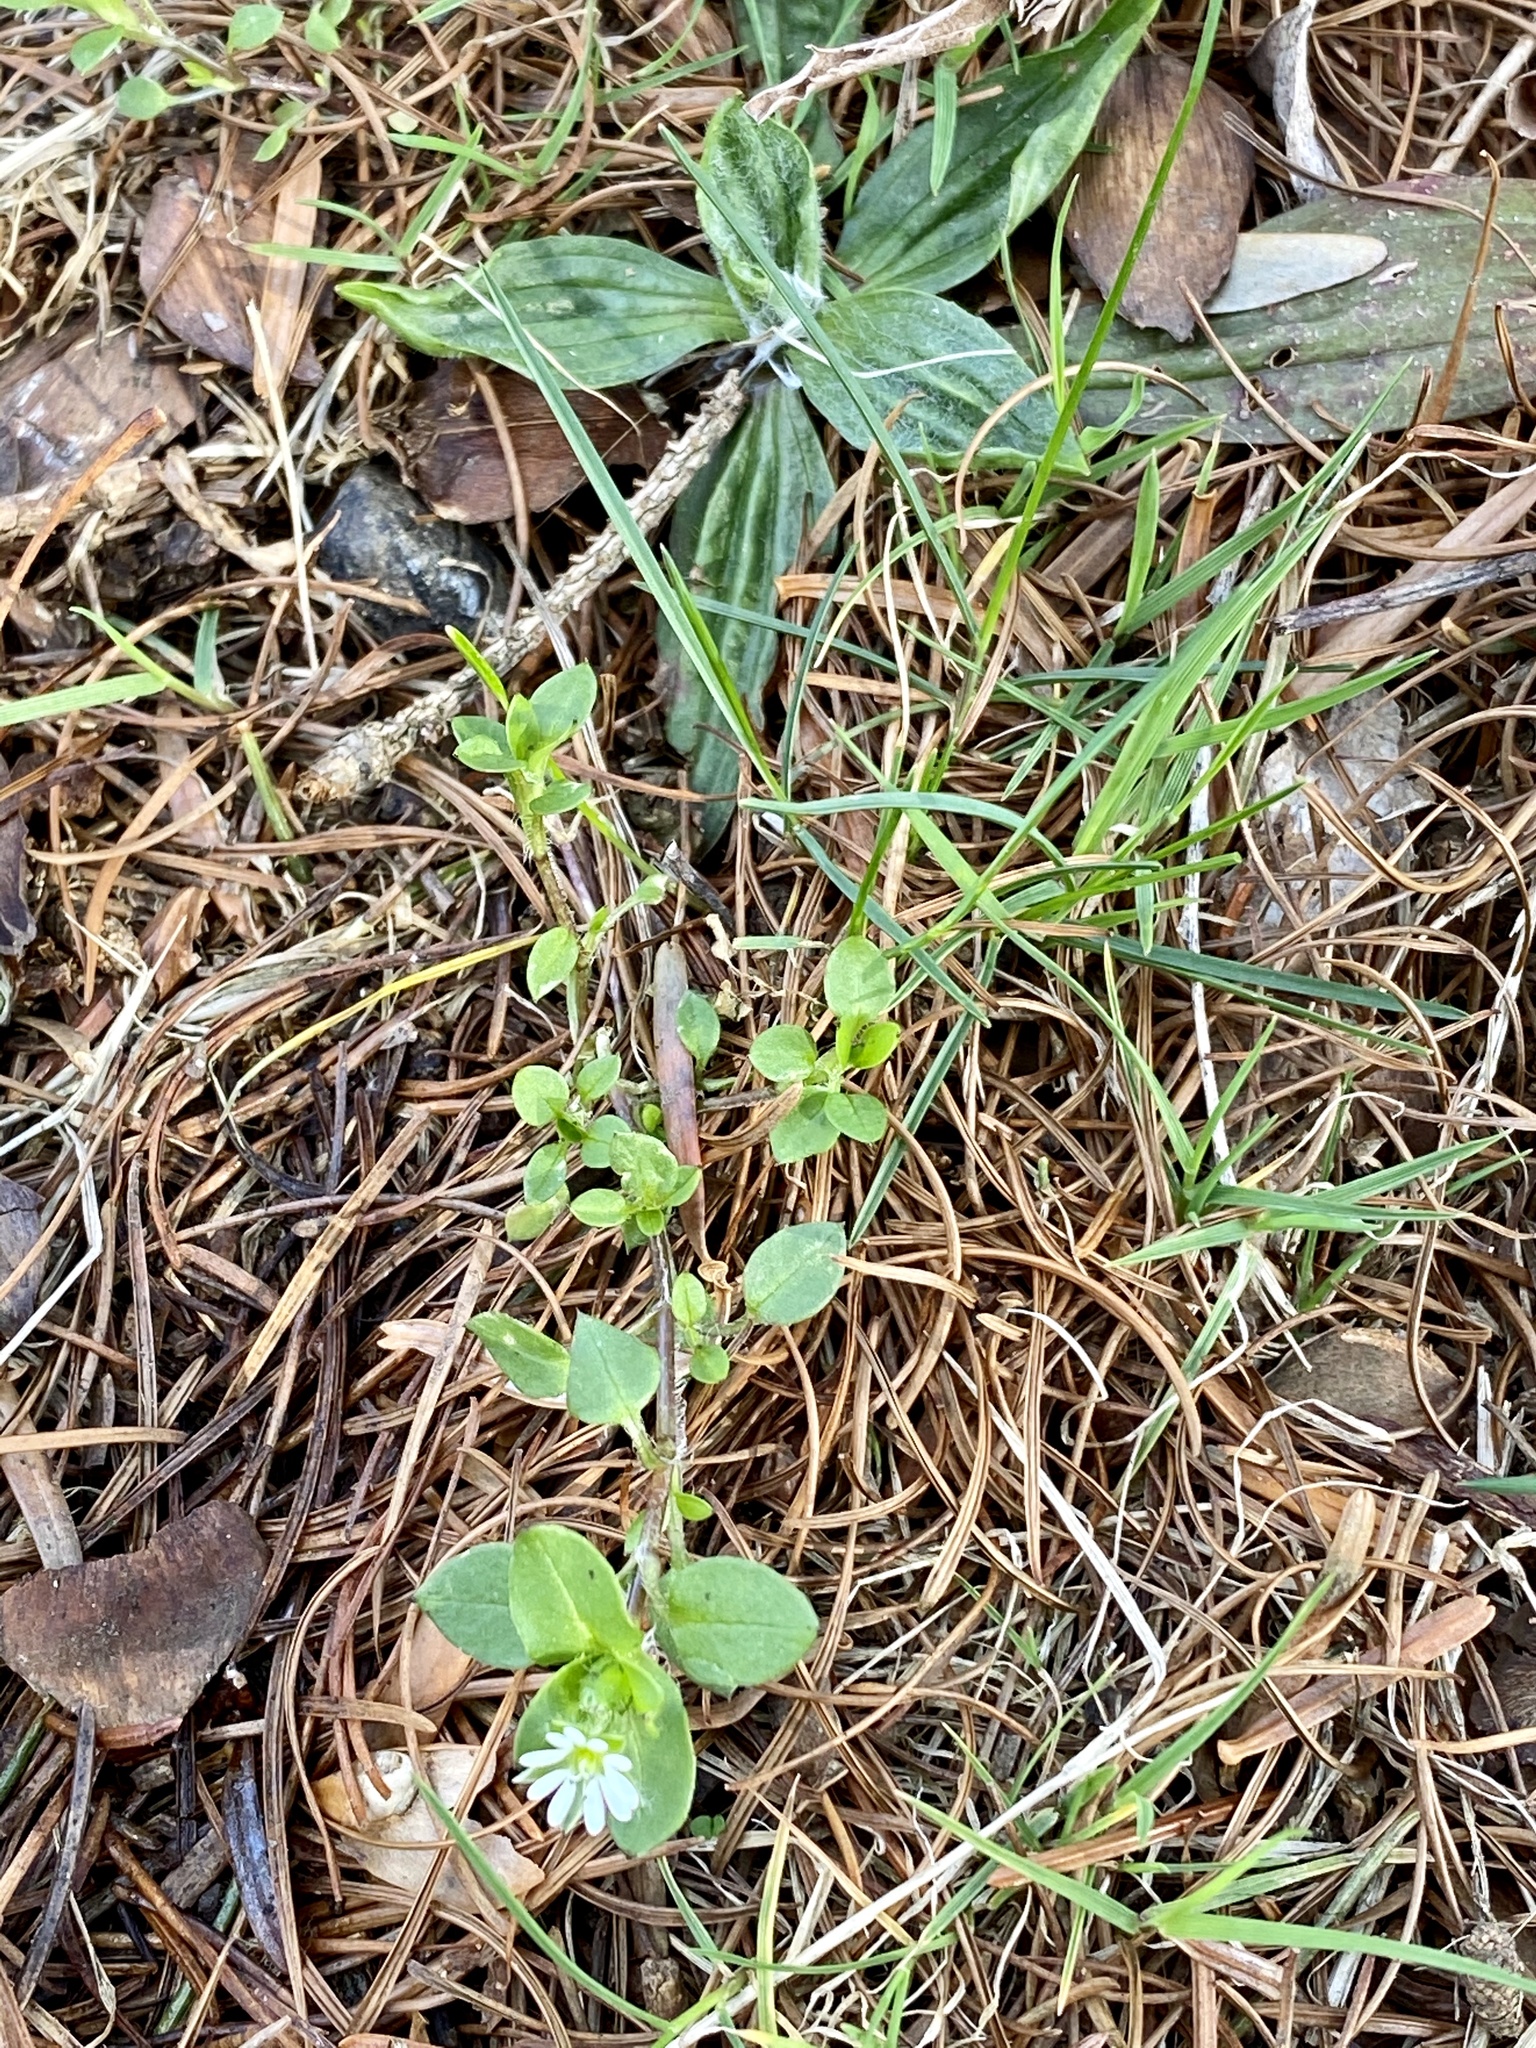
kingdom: Plantae
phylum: Tracheophyta
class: Magnoliopsida
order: Caryophyllales
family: Caryophyllaceae
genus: Stellaria
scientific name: Stellaria media
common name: Common chickweed
